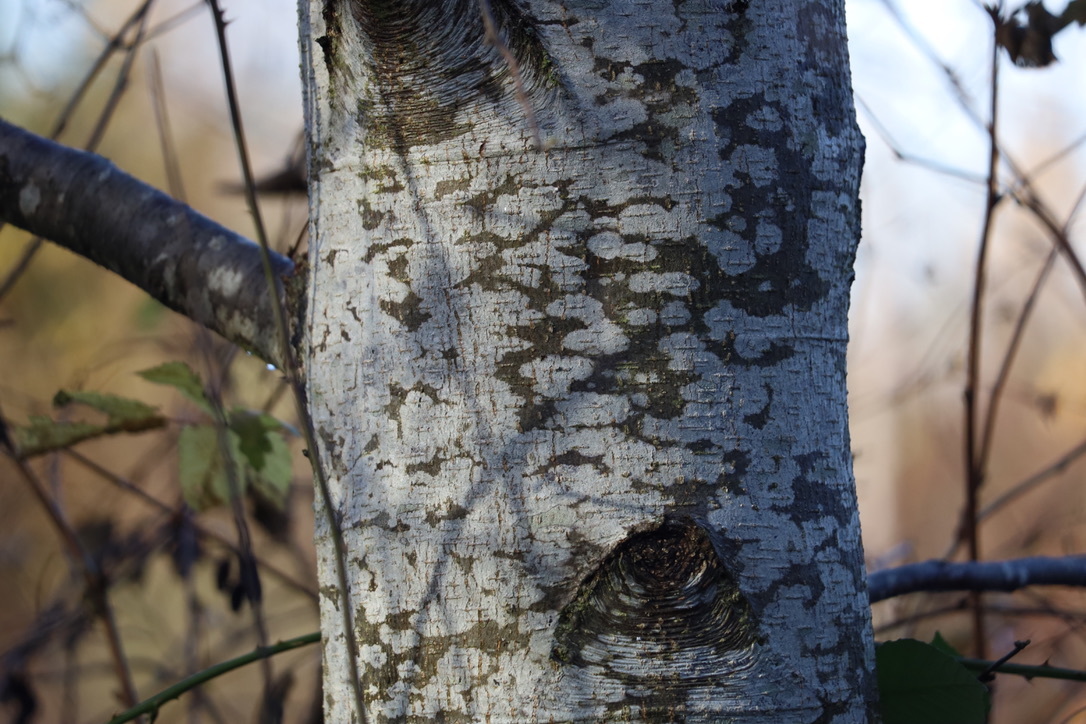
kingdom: Plantae
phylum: Tracheophyta
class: Magnoliopsida
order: Fagales
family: Betulaceae
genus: Alnus
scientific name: Alnus rubra
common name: Red alder
